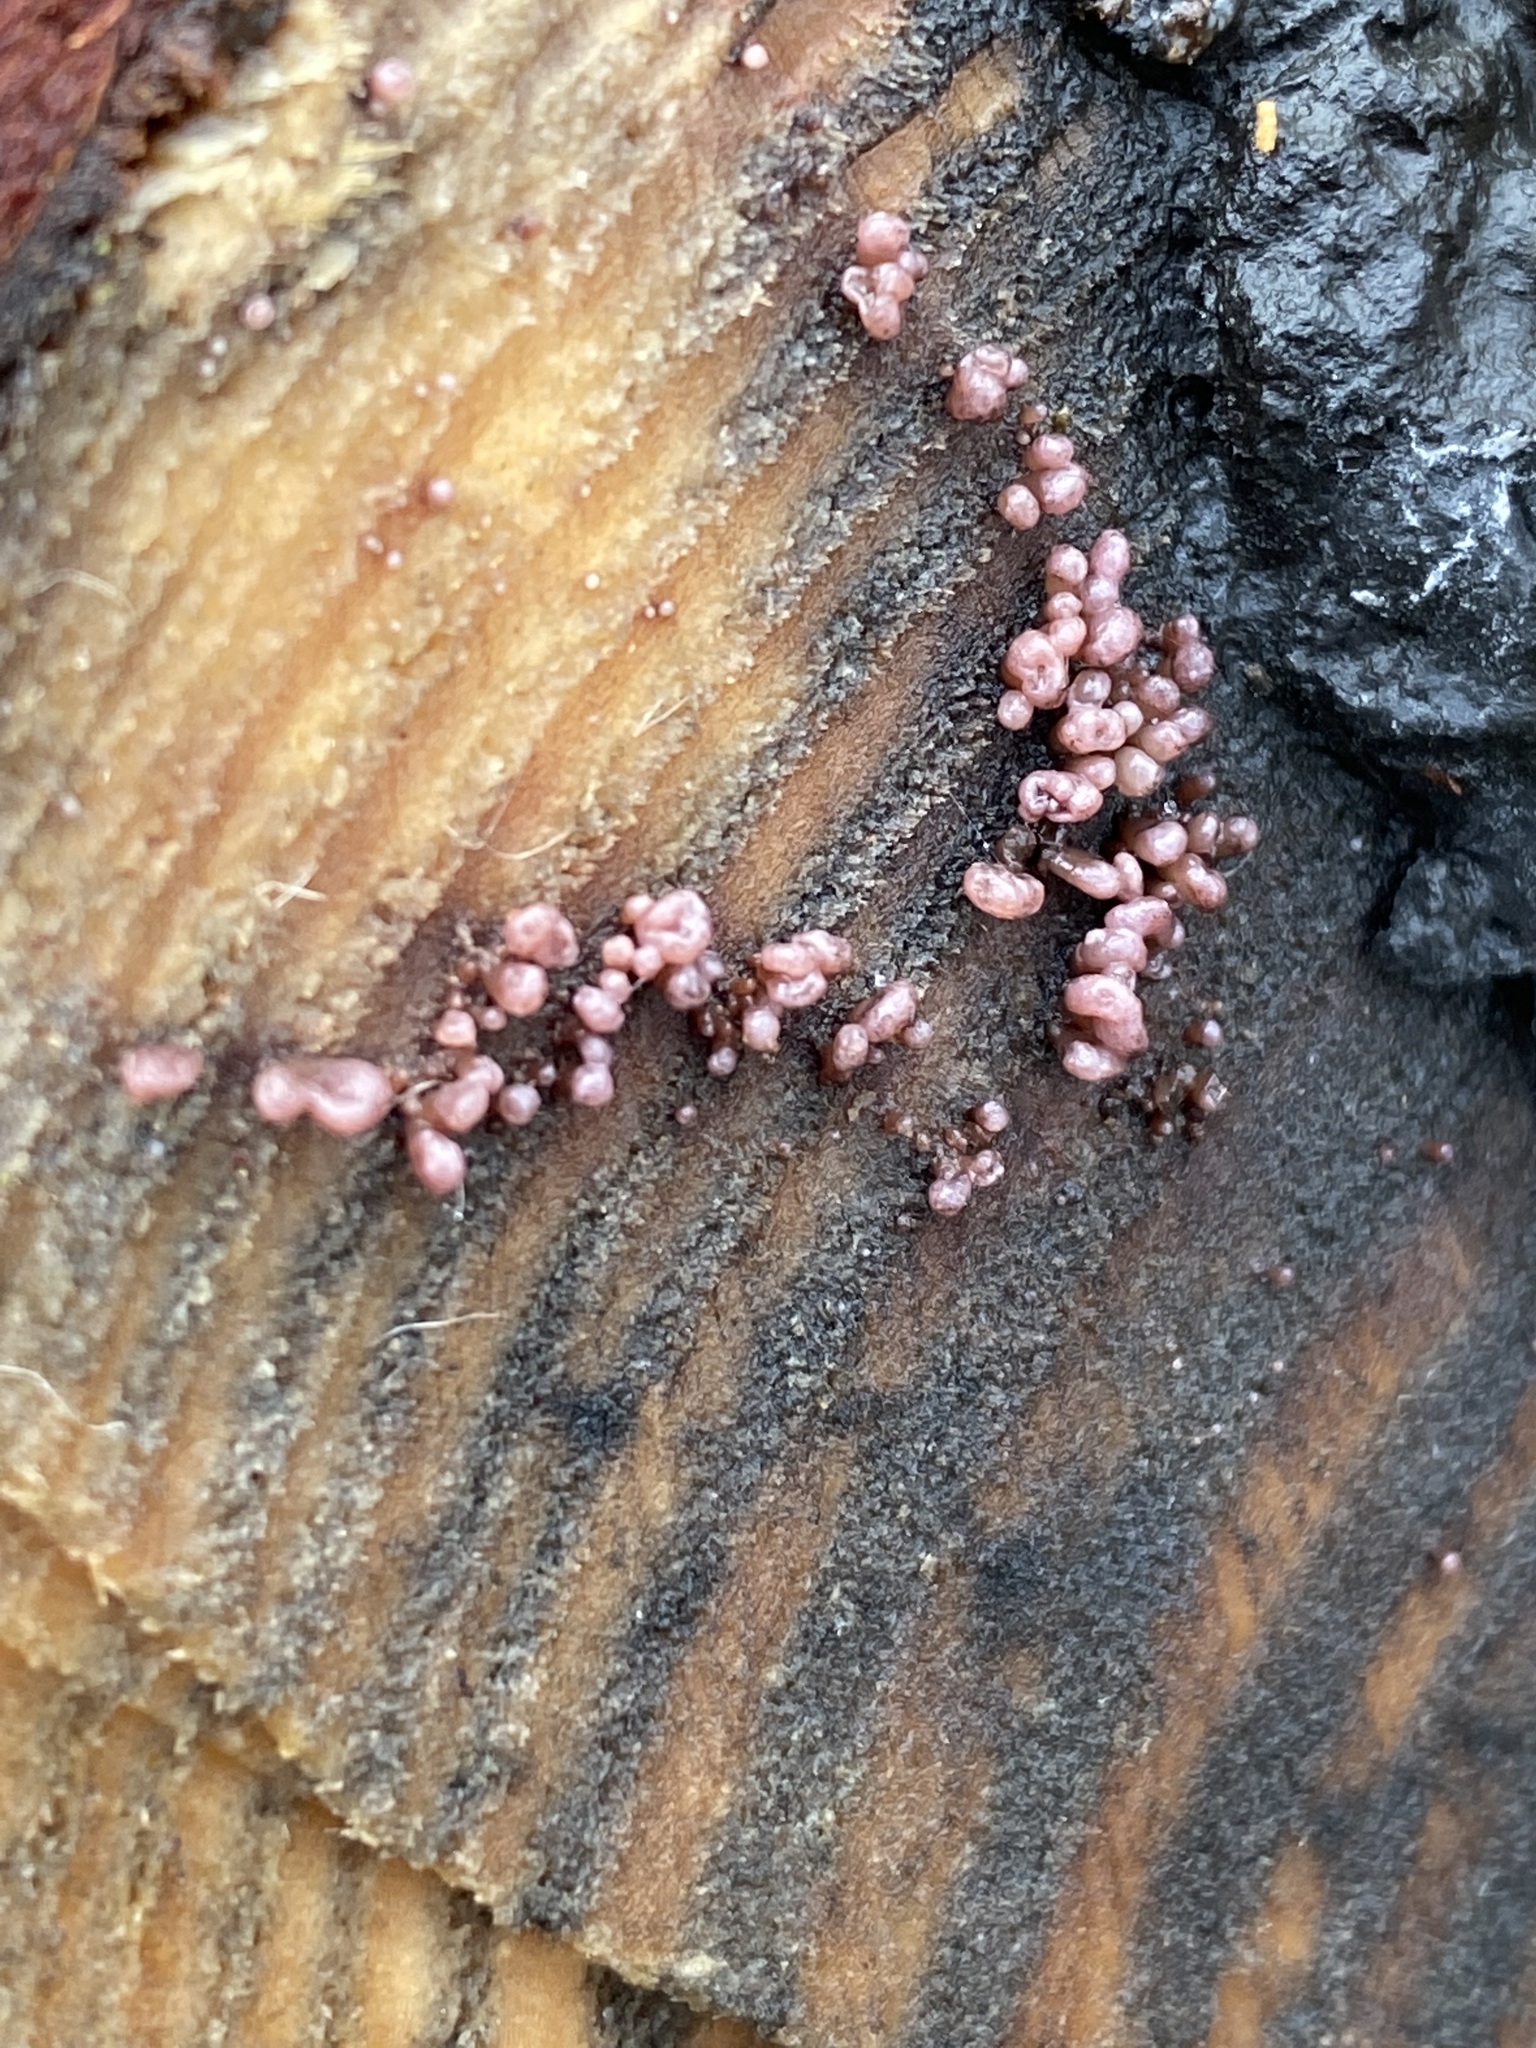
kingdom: Fungi
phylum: Ascomycota
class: Leotiomycetes
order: Helotiales
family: Gelatinodiscaceae
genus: Ascocoryne
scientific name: Ascocoryne sarcoides
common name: Purple jellydisc
